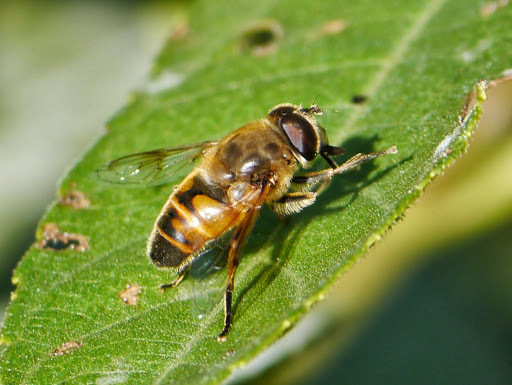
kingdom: Animalia
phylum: Arthropoda
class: Insecta
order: Diptera
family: Syrphidae
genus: Eristalis
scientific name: Eristalis tenax
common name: Drone fly
